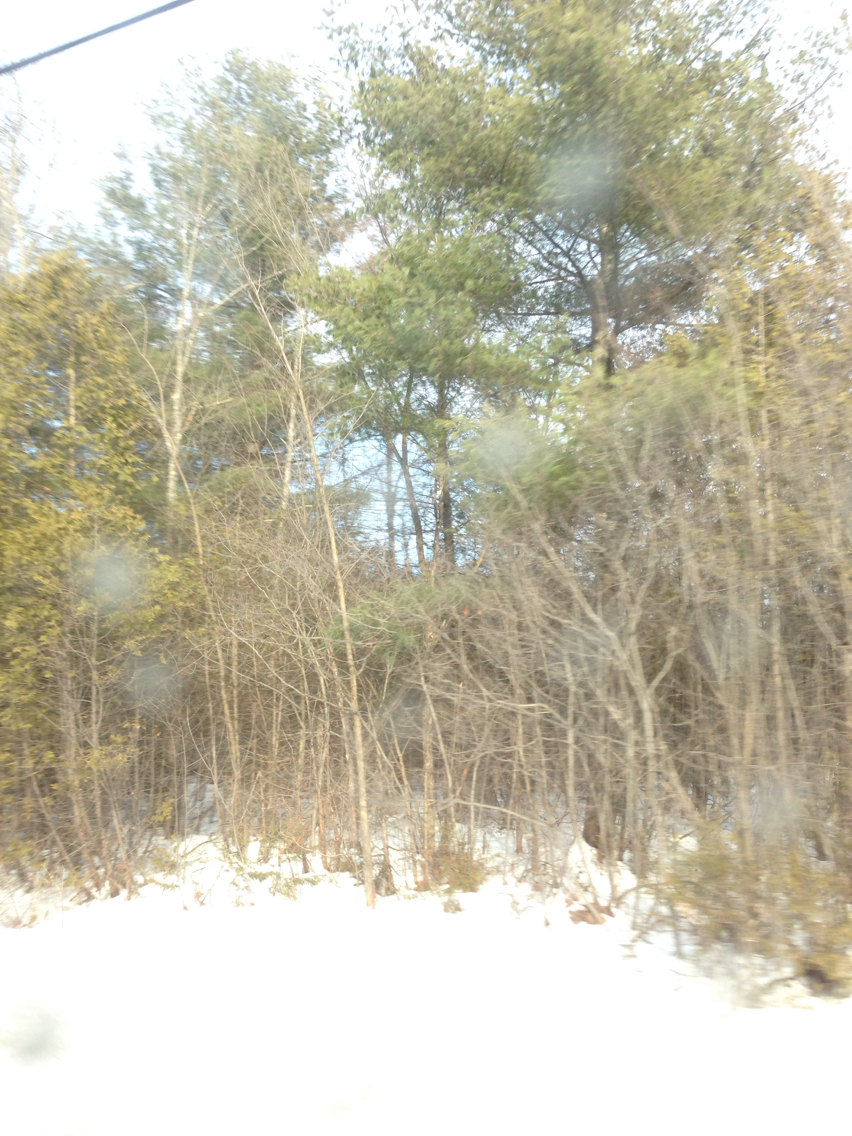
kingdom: Plantae
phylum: Tracheophyta
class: Pinopsida
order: Pinales
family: Pinaceae
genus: Pinus
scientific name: Pinus strobus
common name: Weymouth pine
